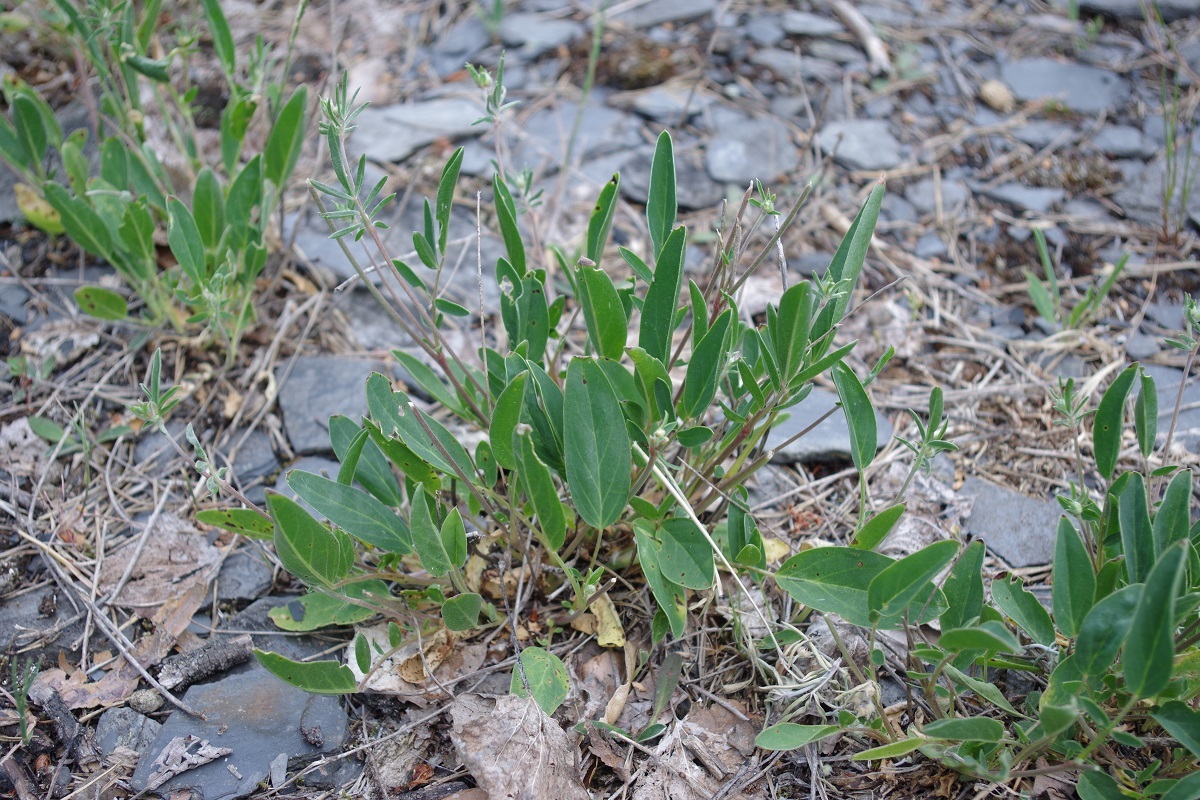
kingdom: Plantae
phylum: Tracheophyta
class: Magnoliopsida
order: Fabales
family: Fabaceae
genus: Anthyllis
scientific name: Anthyllis vulneraria
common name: Kidney vetch
